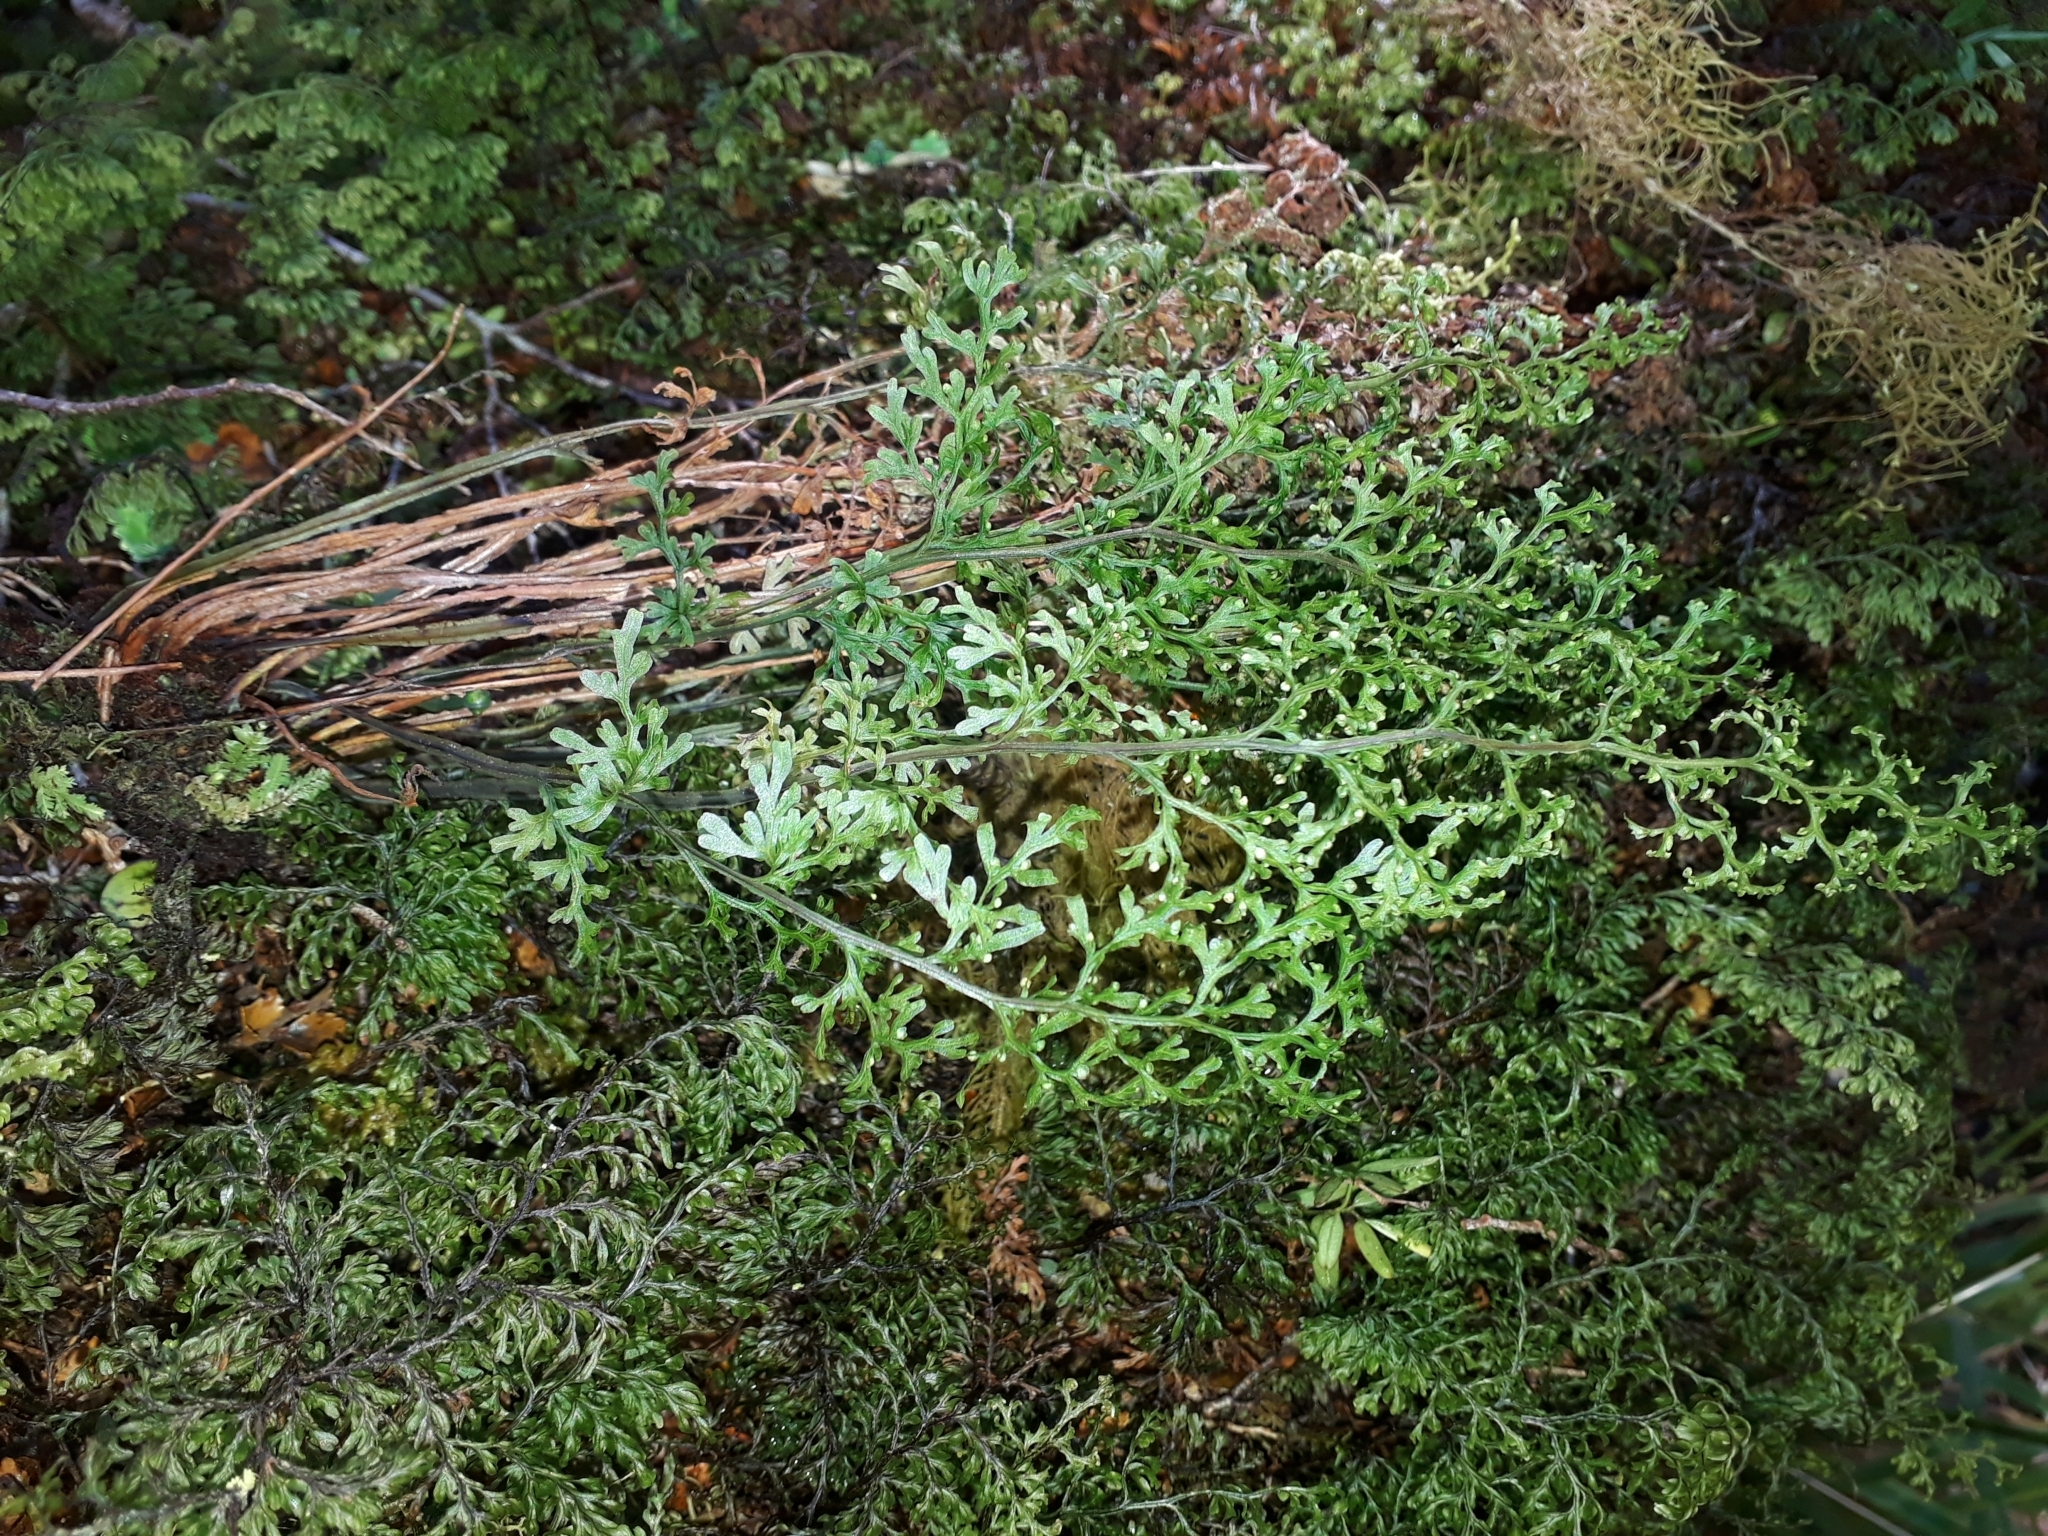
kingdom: Plantae
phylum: Tracheophyta
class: Polypodiopsida
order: Hymenophyllales
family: Hymenophyllaceae
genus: Hymenophyllum
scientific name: Hymenophyllum pulcherrimum
